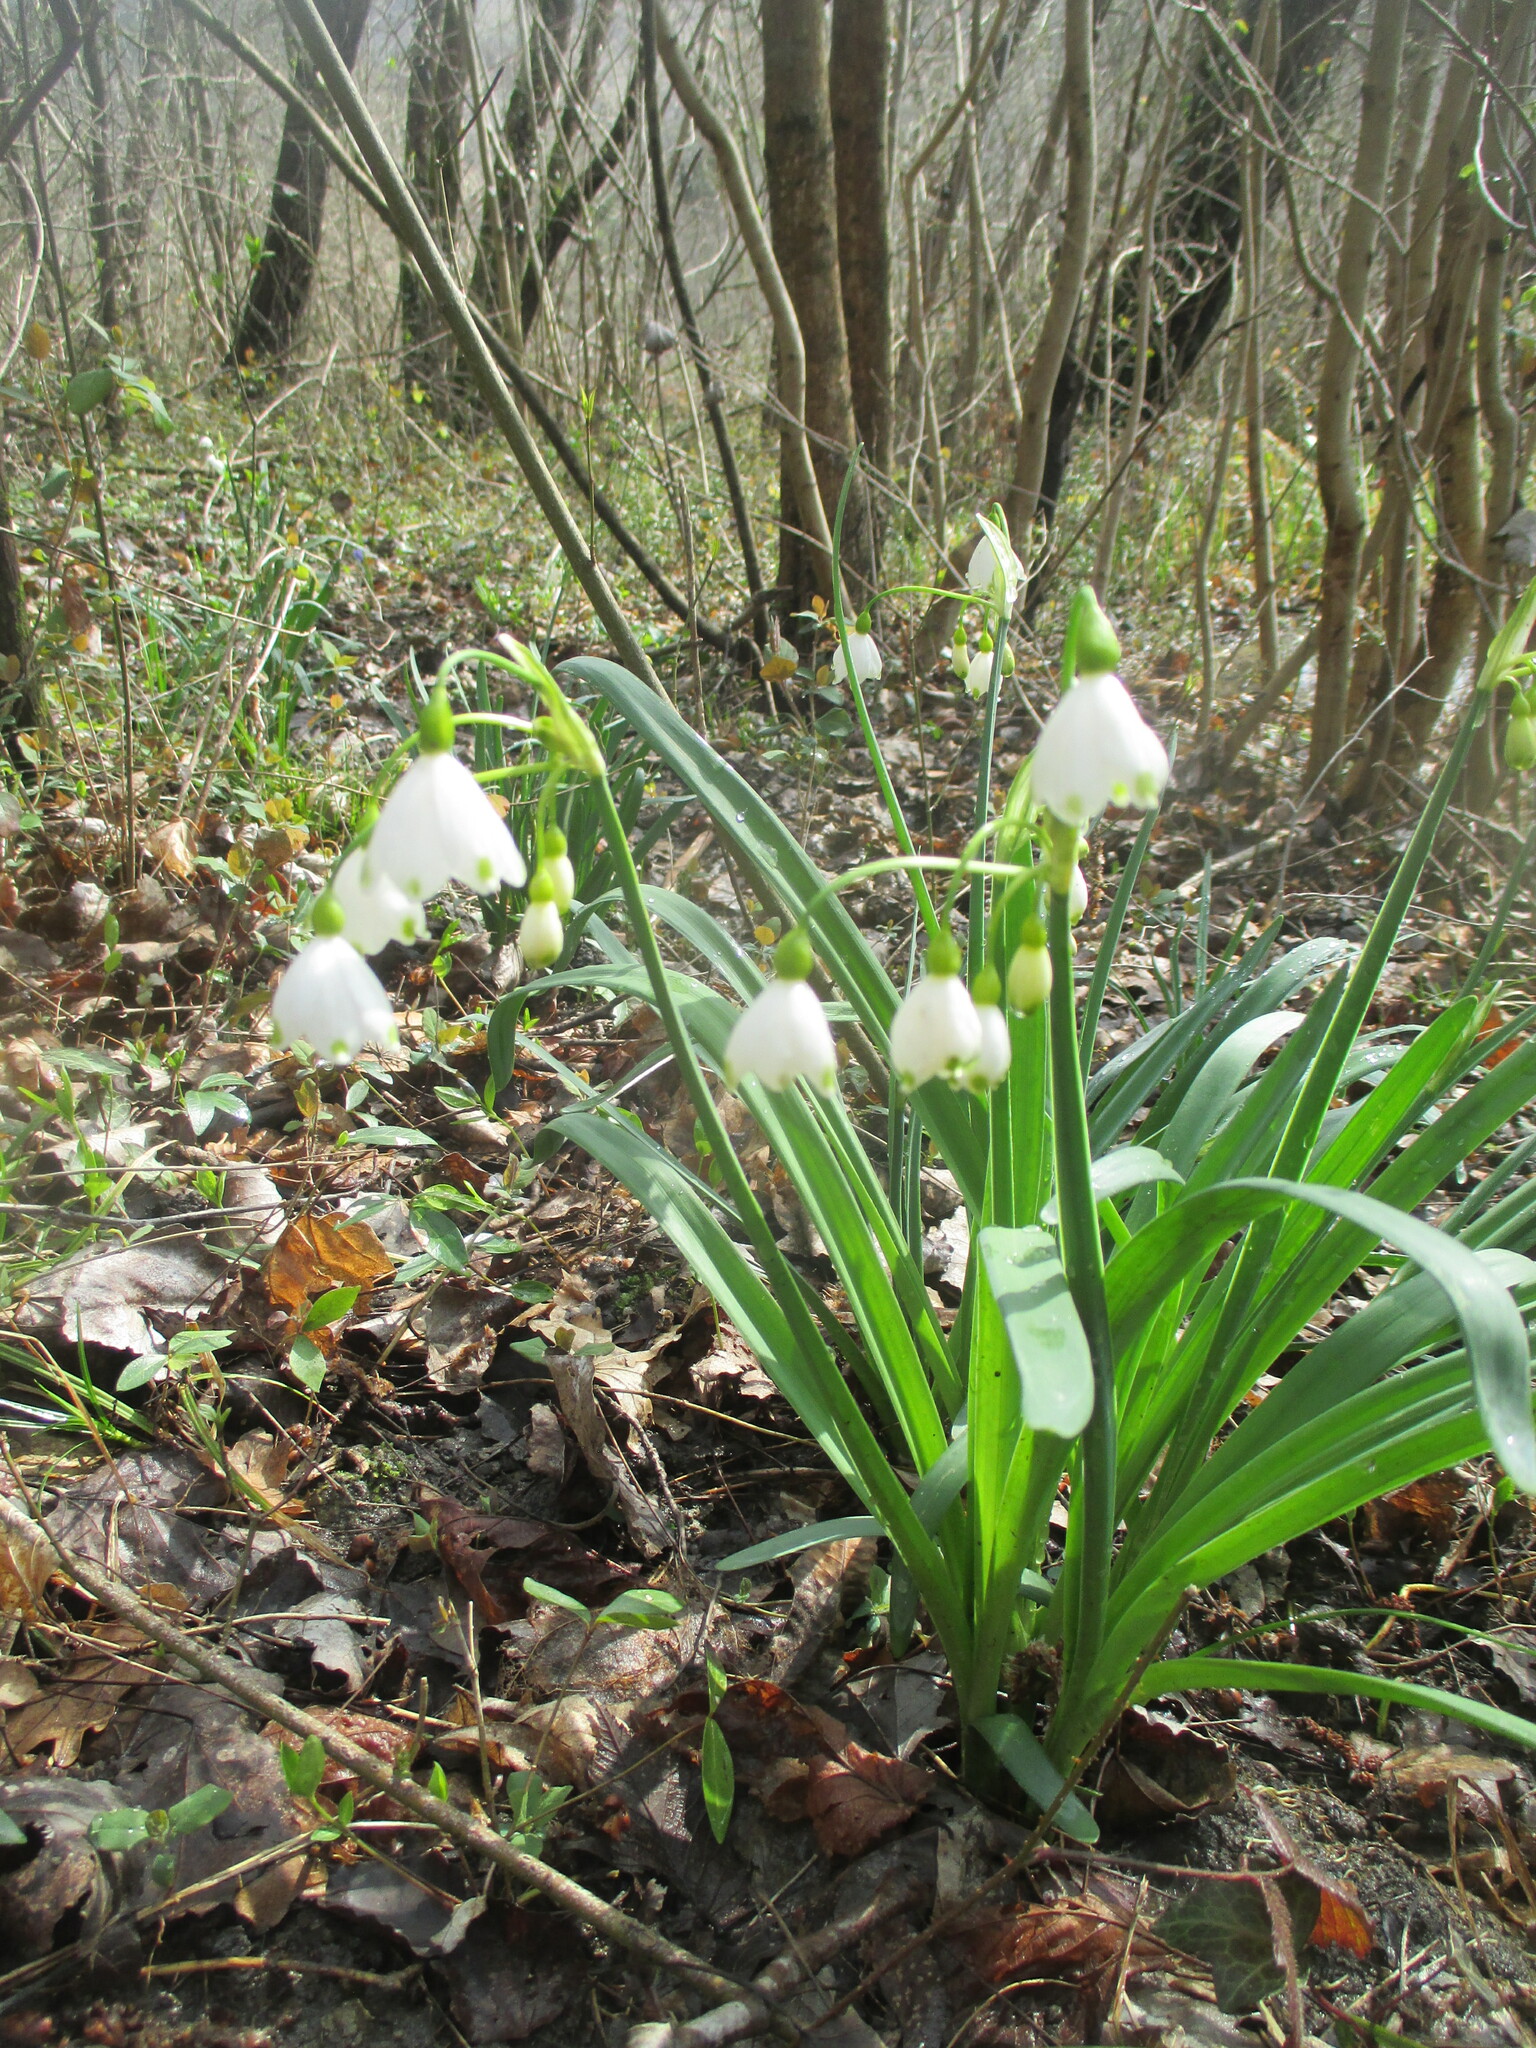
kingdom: Plantae
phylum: Tracheophyta
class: Liliopsida
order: Asparagales
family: Amaryllidaceae
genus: Leucojum
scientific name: Leucojum aestivum
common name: Summer snowflake
